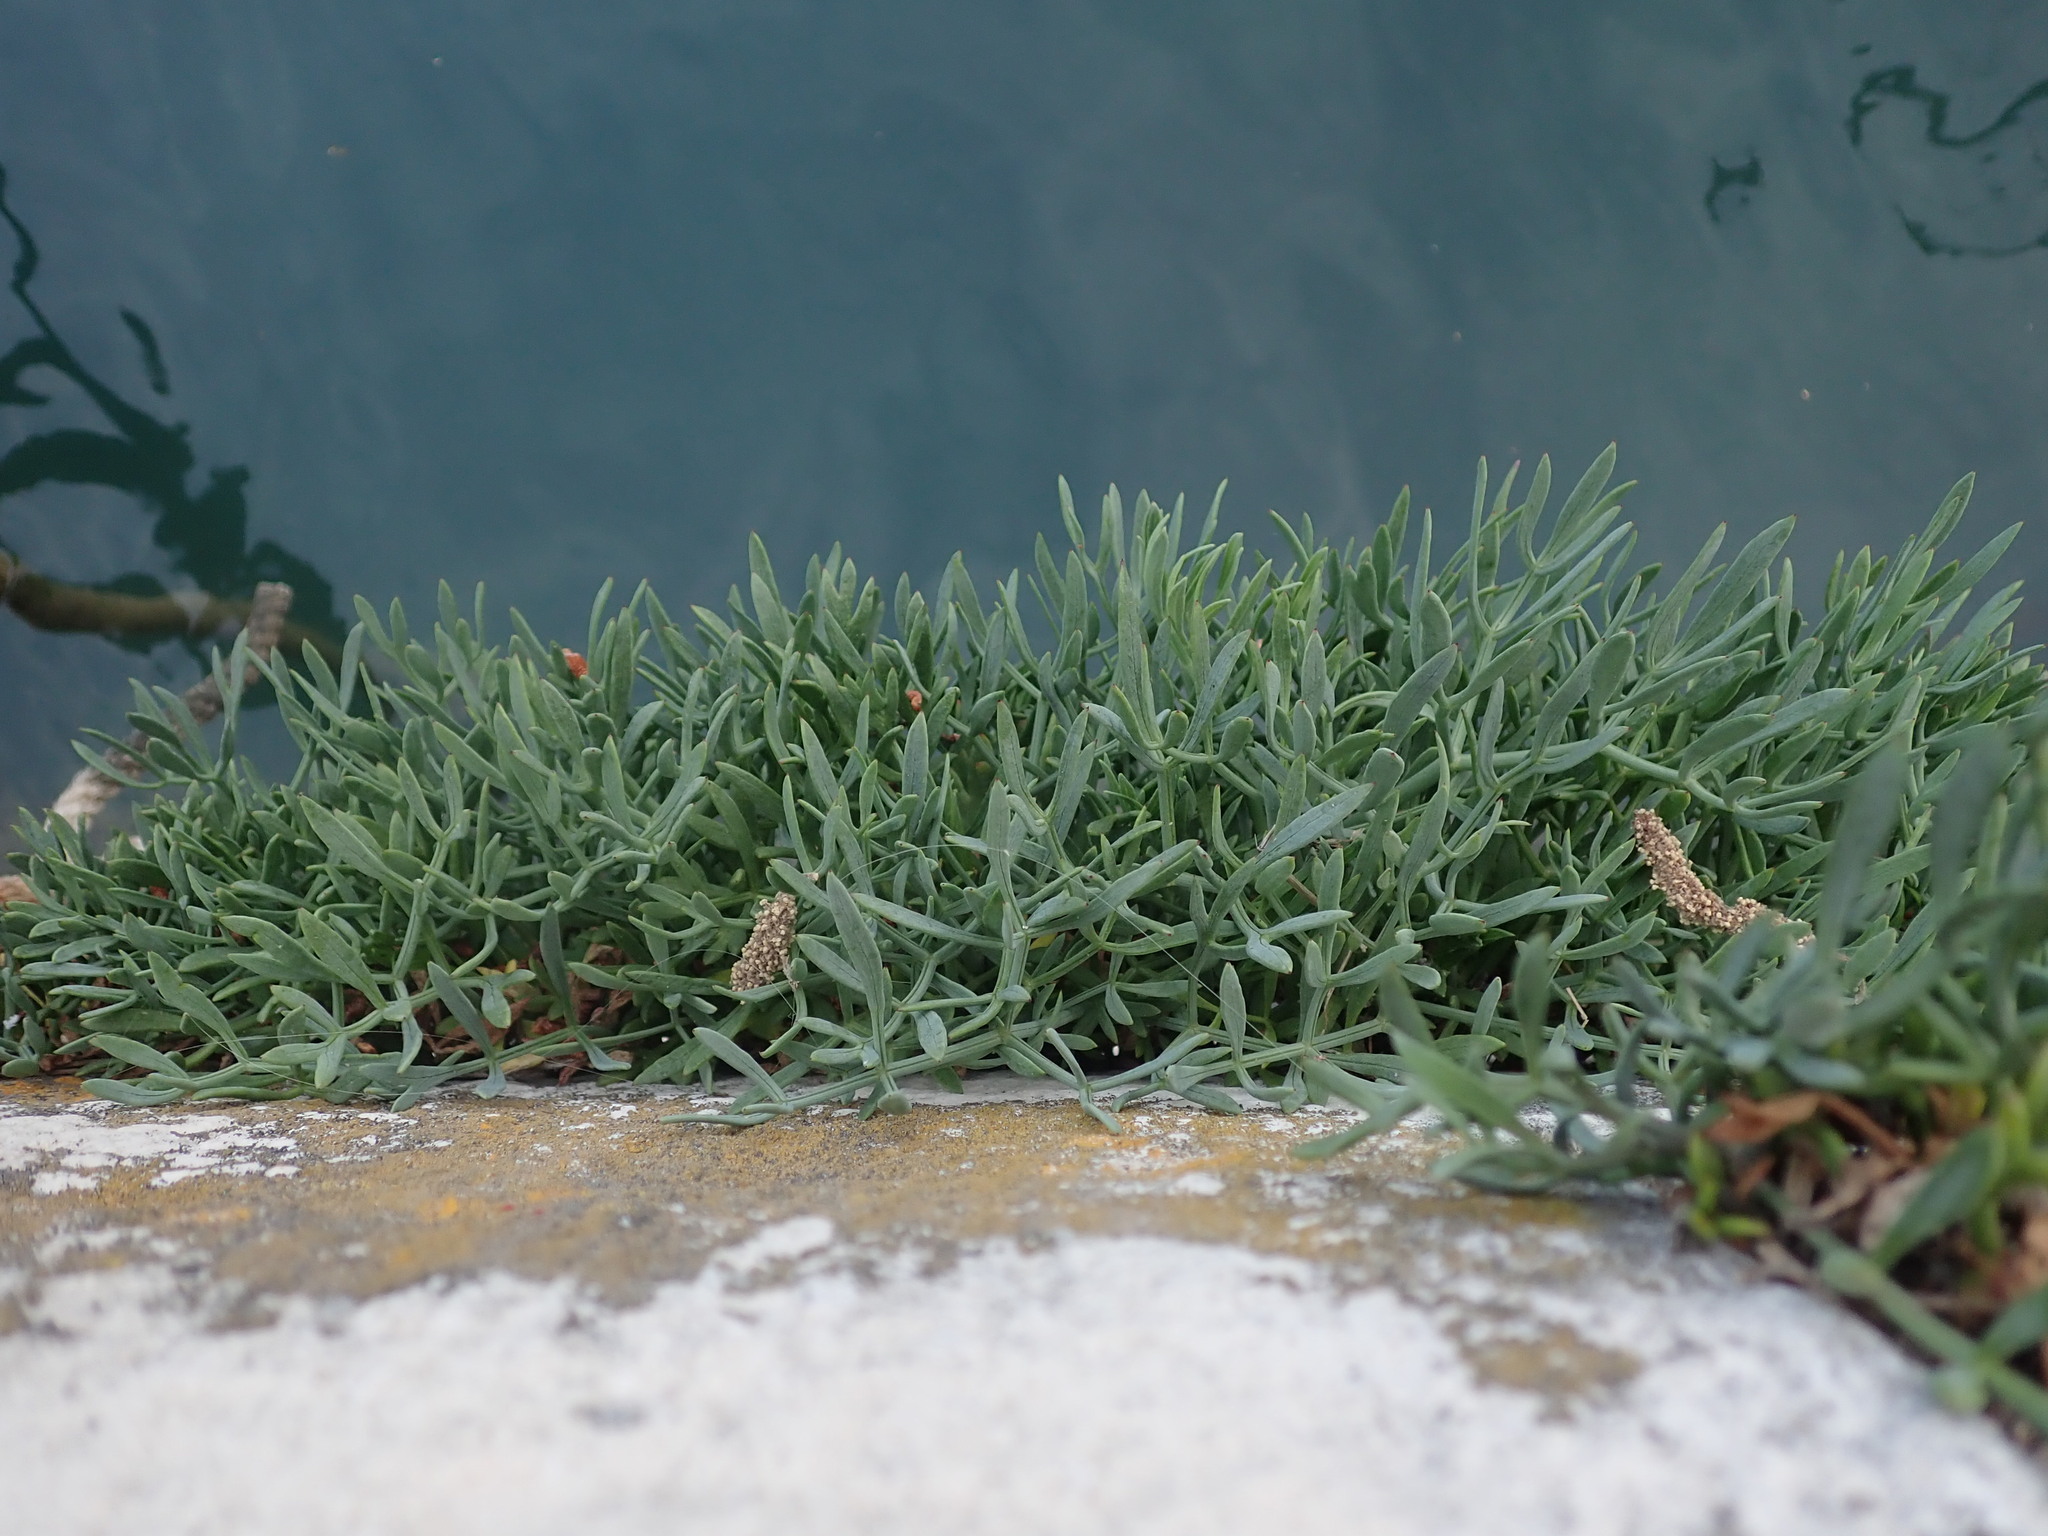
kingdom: Plantae
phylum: Tracheophyta
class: Magnoliopsida
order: Apiales
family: Apiaceae
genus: Crithmum
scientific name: Crithmum maritimum
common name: Rock samphire
